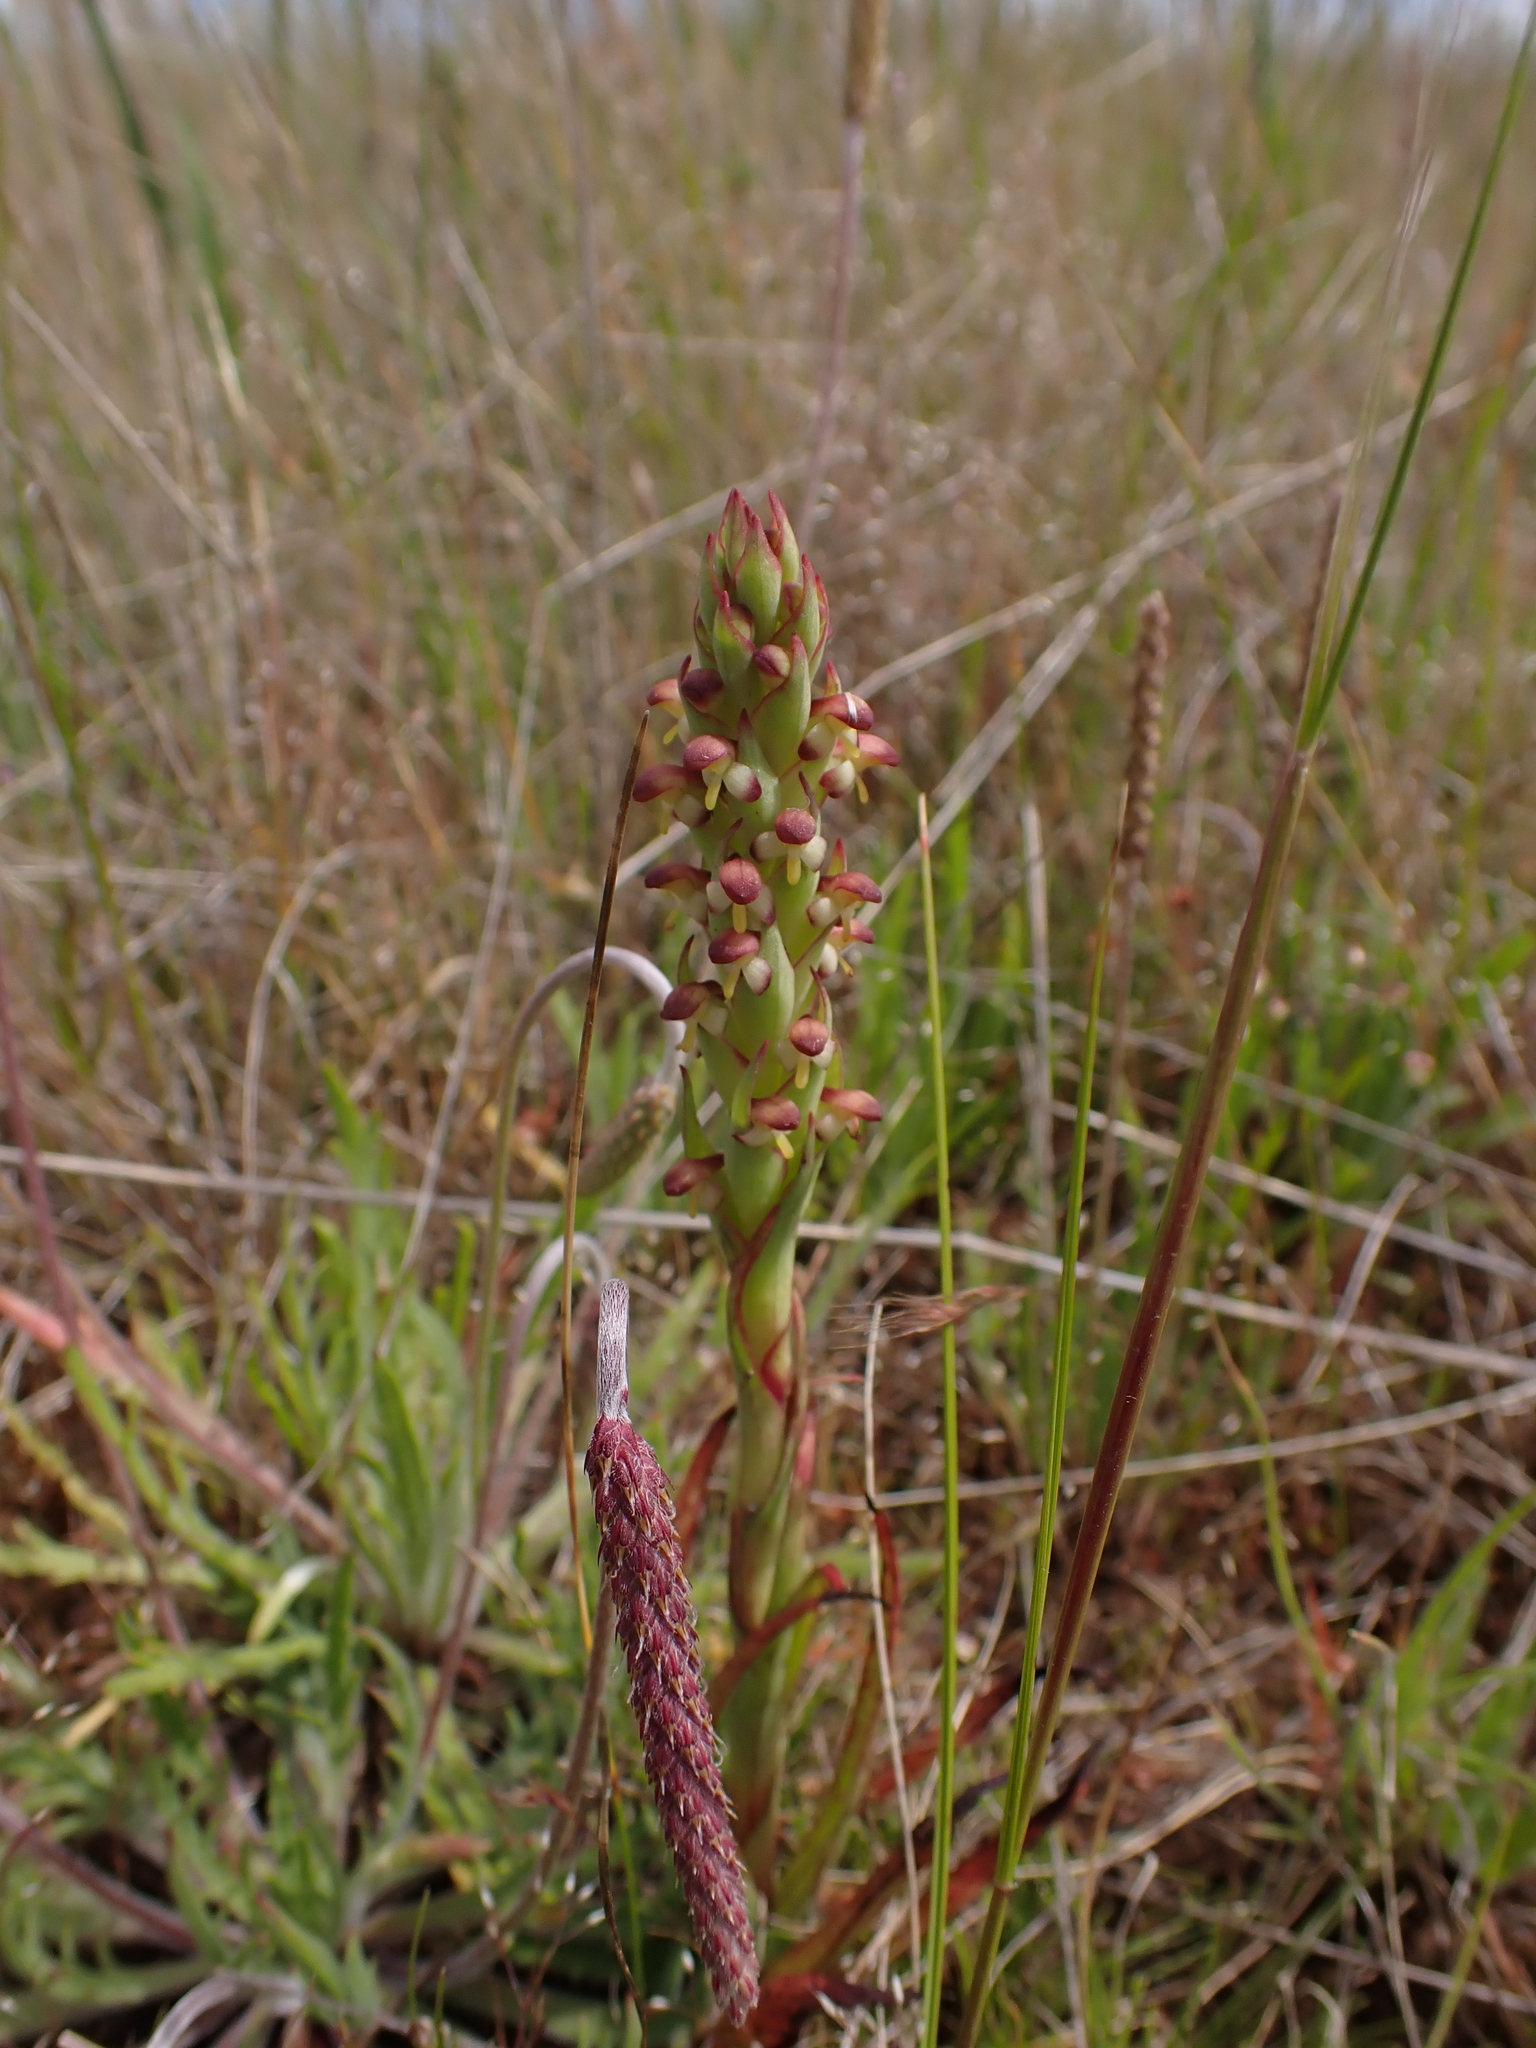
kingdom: Plantae
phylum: Tracheophyta
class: Liliopsida
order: Asparagales
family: Orchidaceae
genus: Disa
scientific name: Disa bracteata
